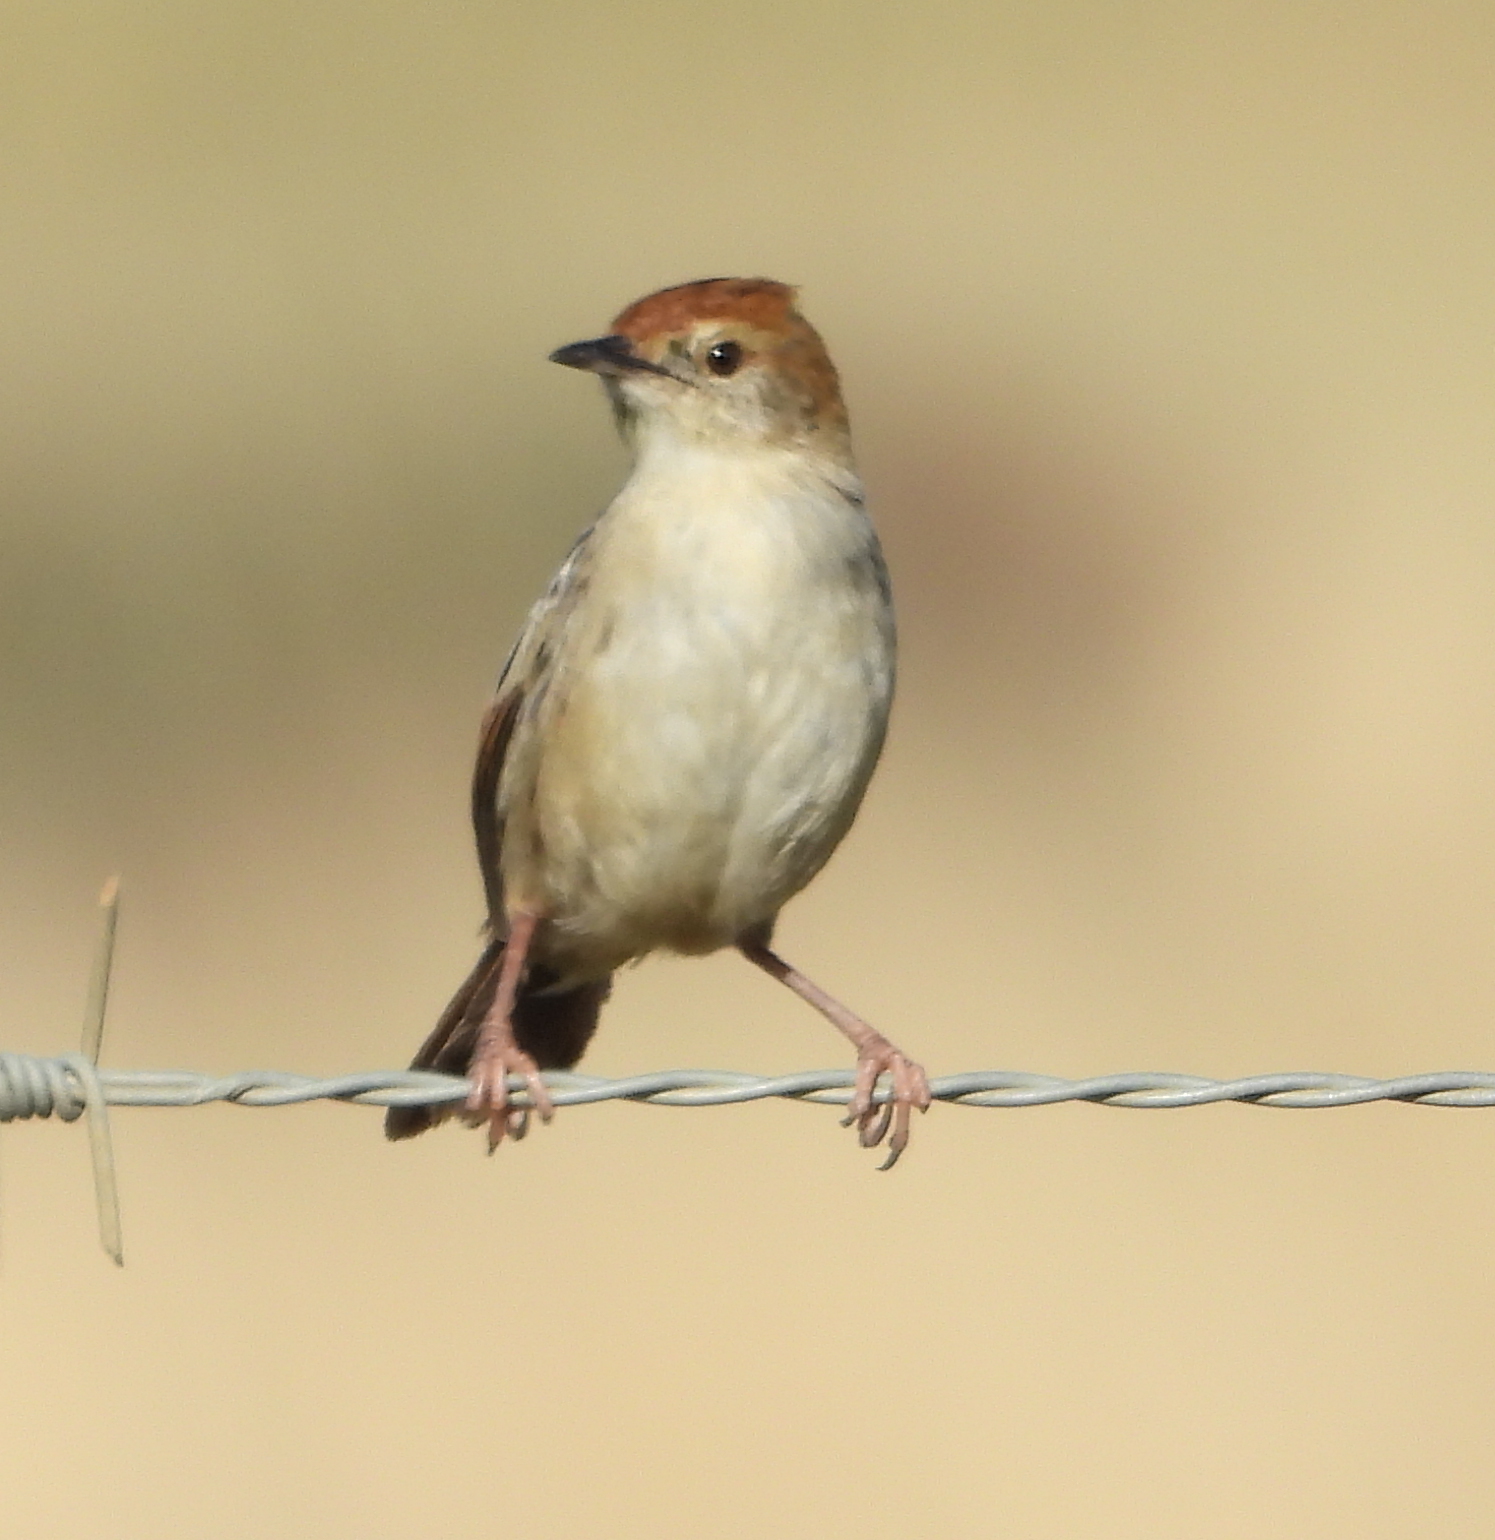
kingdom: Animalia
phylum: Chordata
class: Aves
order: Passeriformes
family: Cisticolidae
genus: Cisticola
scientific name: Cisticola tinniens
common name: Levaillant's cisticola
